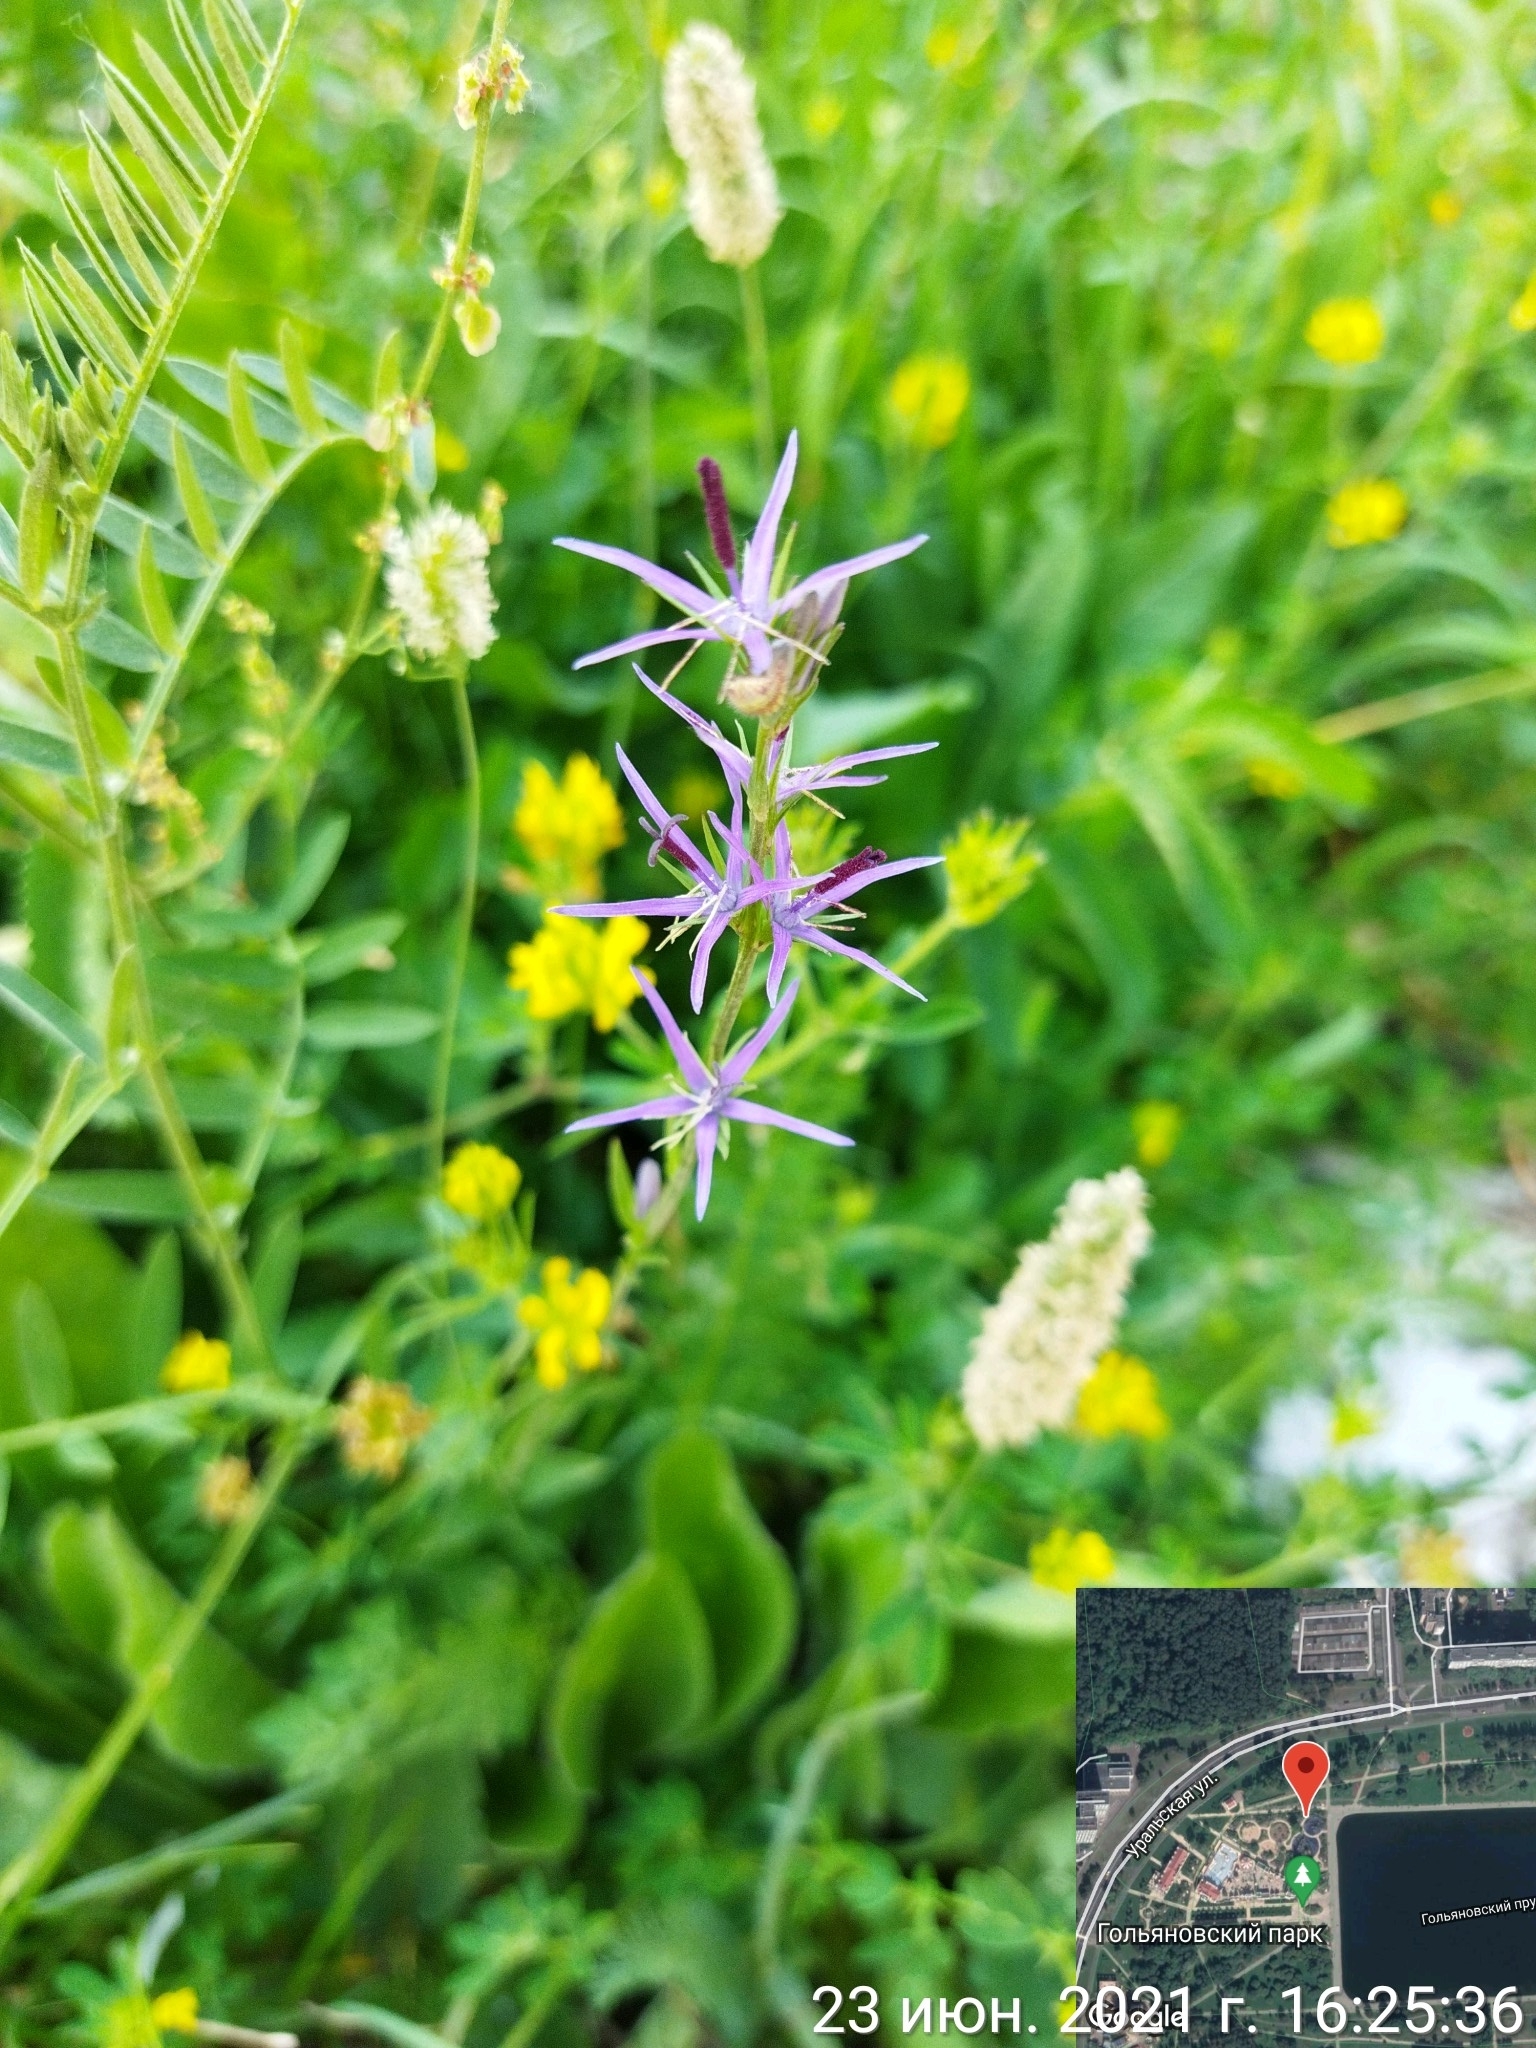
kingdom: Plantae
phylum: Tracheophyta
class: Magnoliopsida
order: Asterales
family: Campanulaceae
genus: Asyneuma
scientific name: Asyneuma campanuloides
